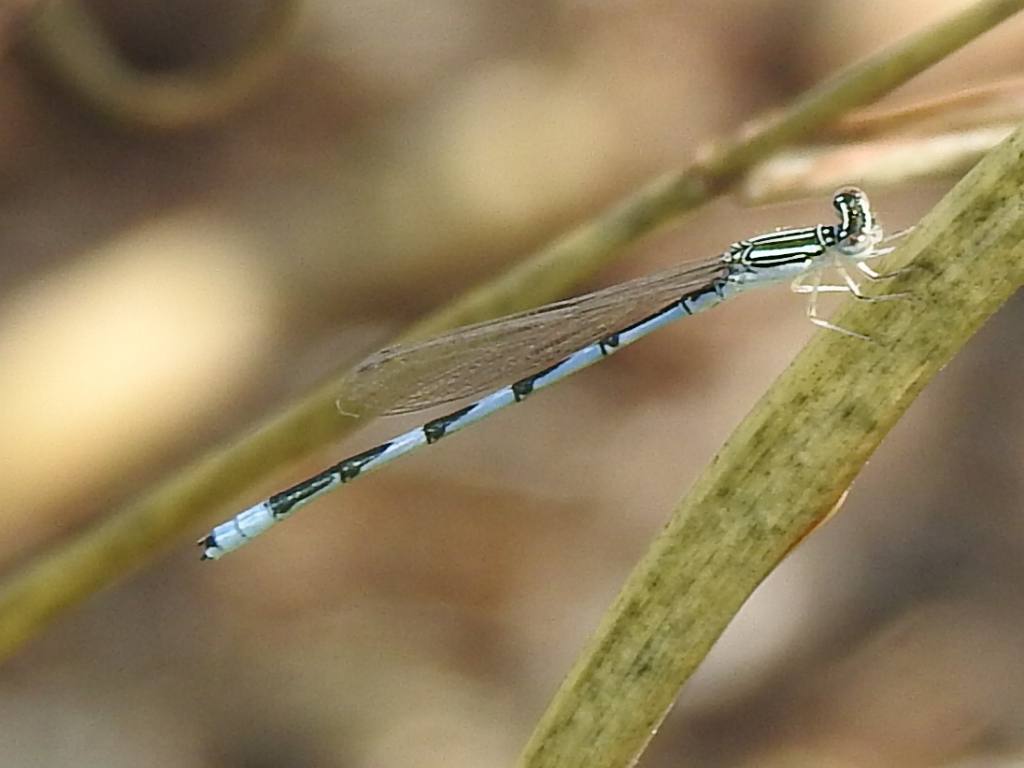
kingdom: Animalia
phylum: Arthropoda
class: Insecta
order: Odonata
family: Coenagrionidae
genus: Enallagma
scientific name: Enallagma basidens
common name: Double-striped bluet
